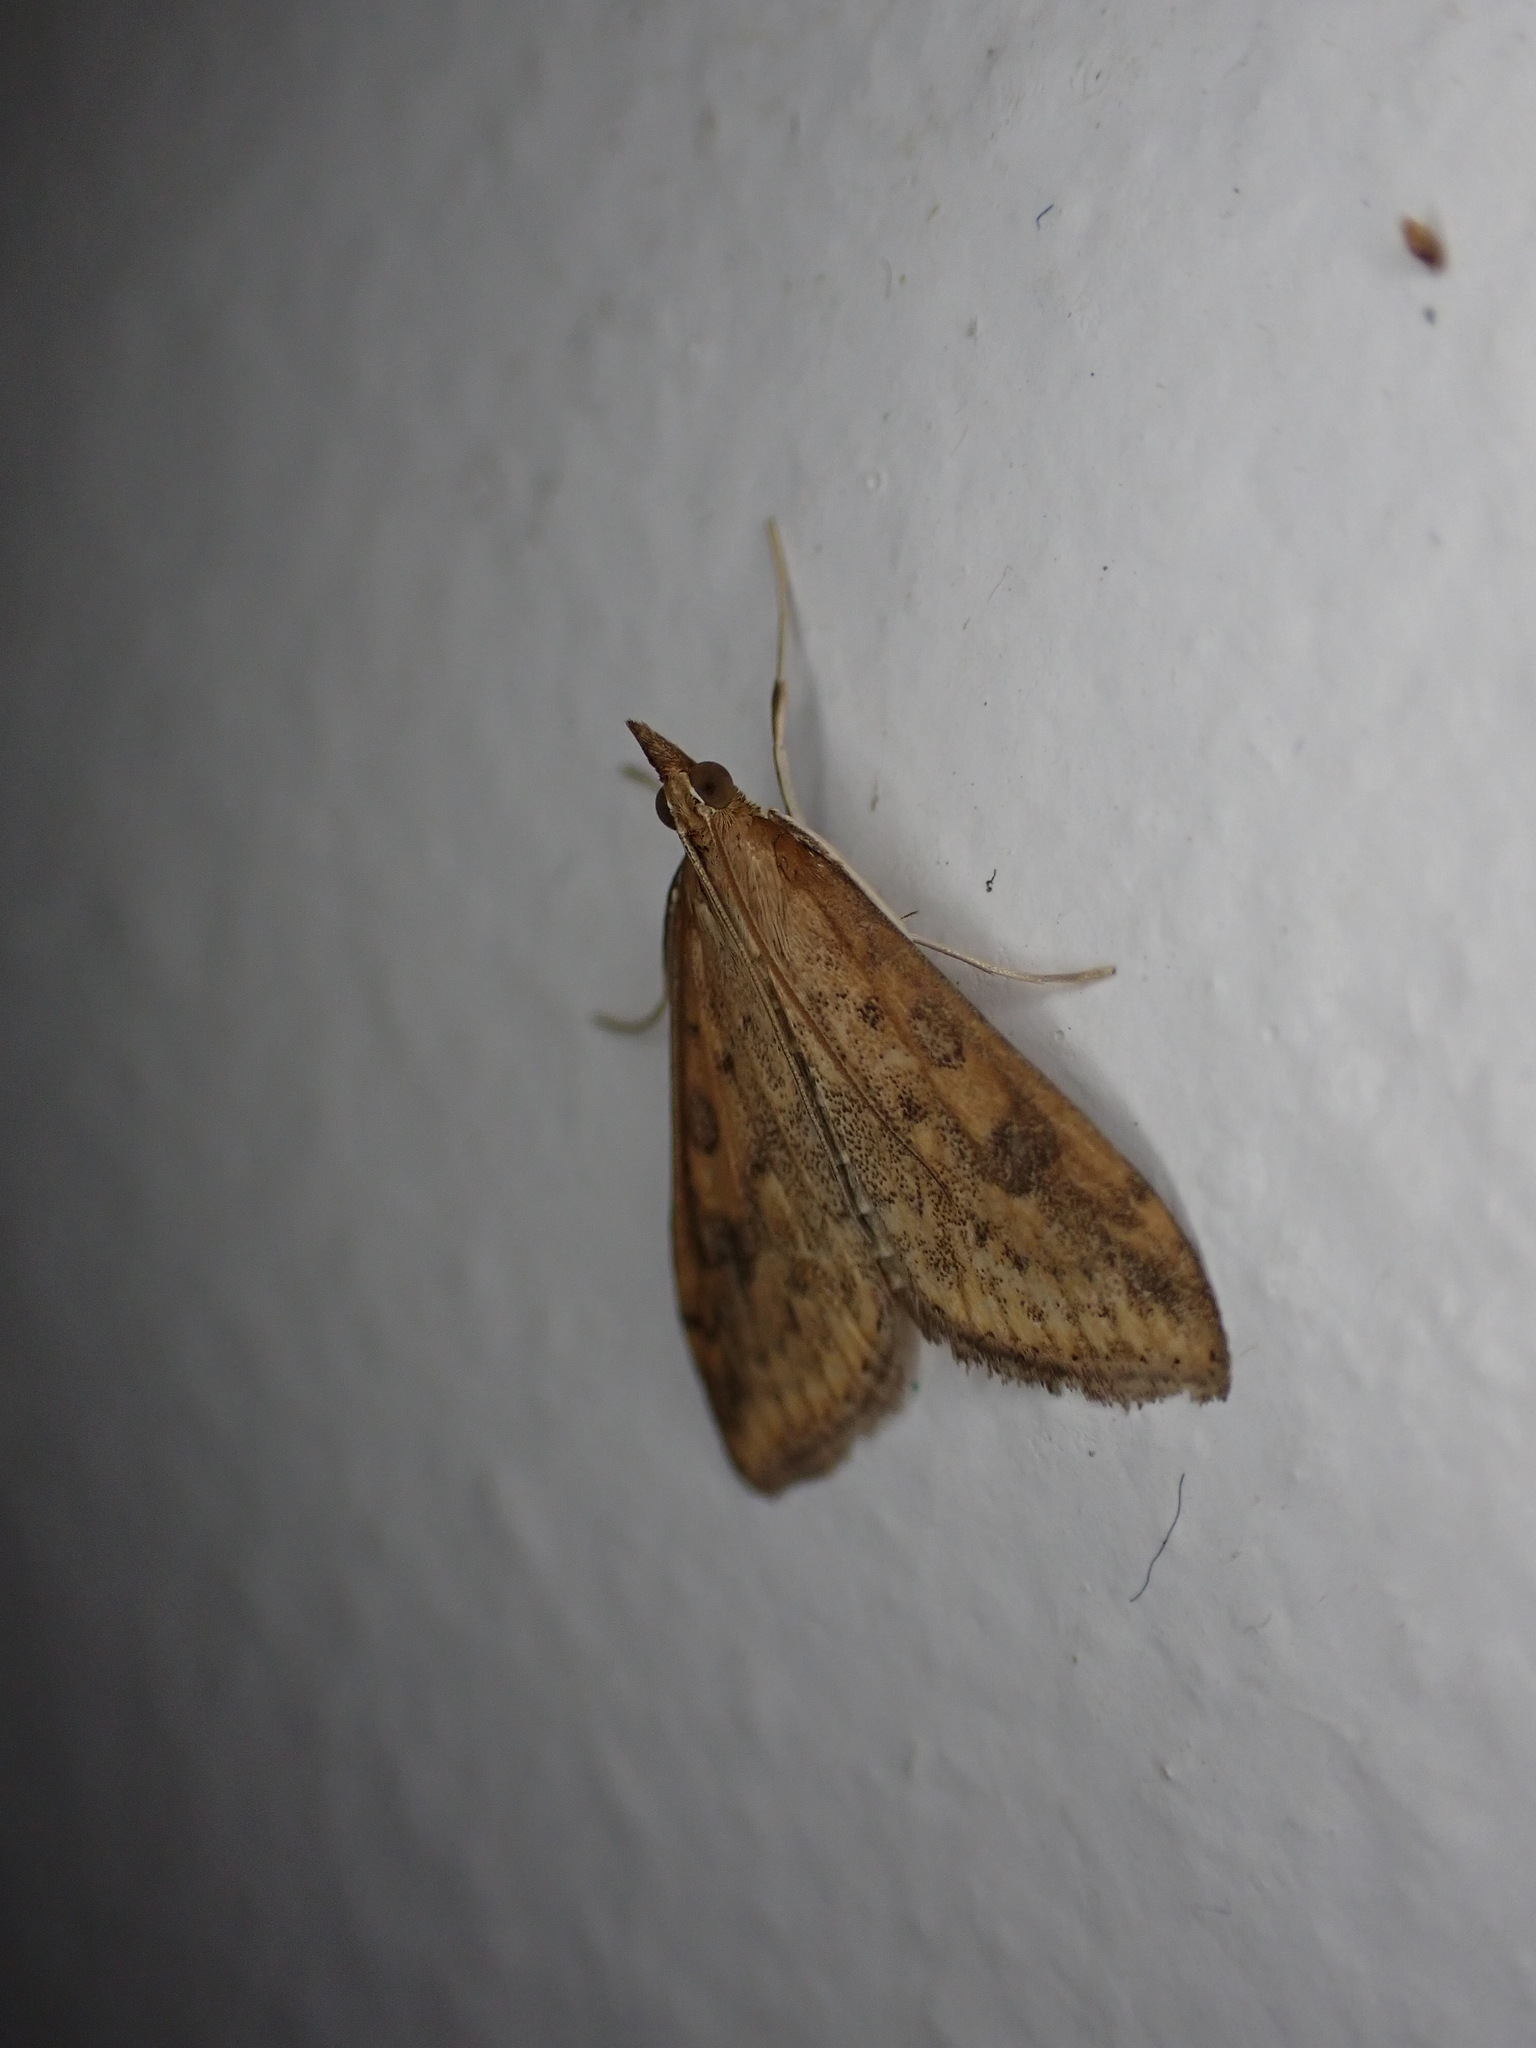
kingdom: Animalia
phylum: Arthropoda
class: Insecta
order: Lepidoptera
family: Crambidae
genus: Udea
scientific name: Udea ferrugalis
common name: Rusty dot
